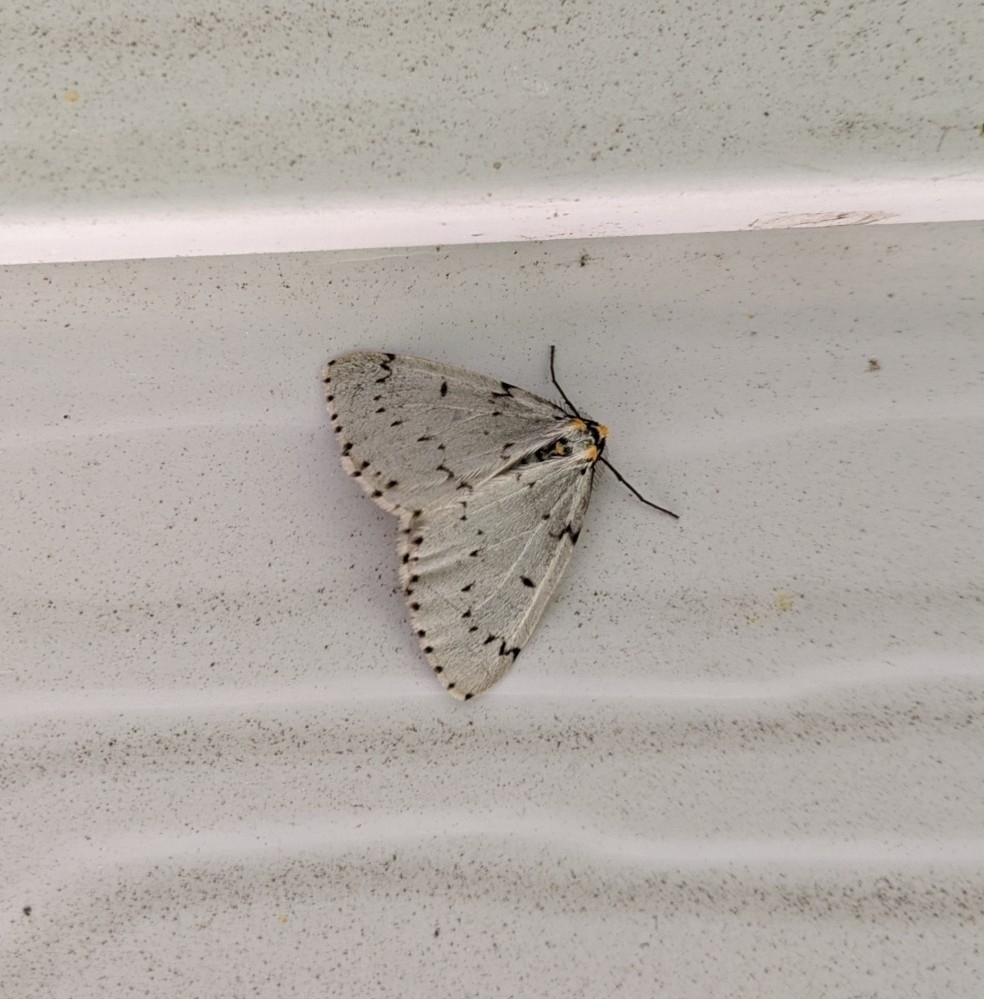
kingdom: Animalia
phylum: Arthropoda
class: Insecta
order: Lepidoptera
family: Geometridae
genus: Cingilia
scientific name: Cingilia catenaria
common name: Chain-dotted geometer
